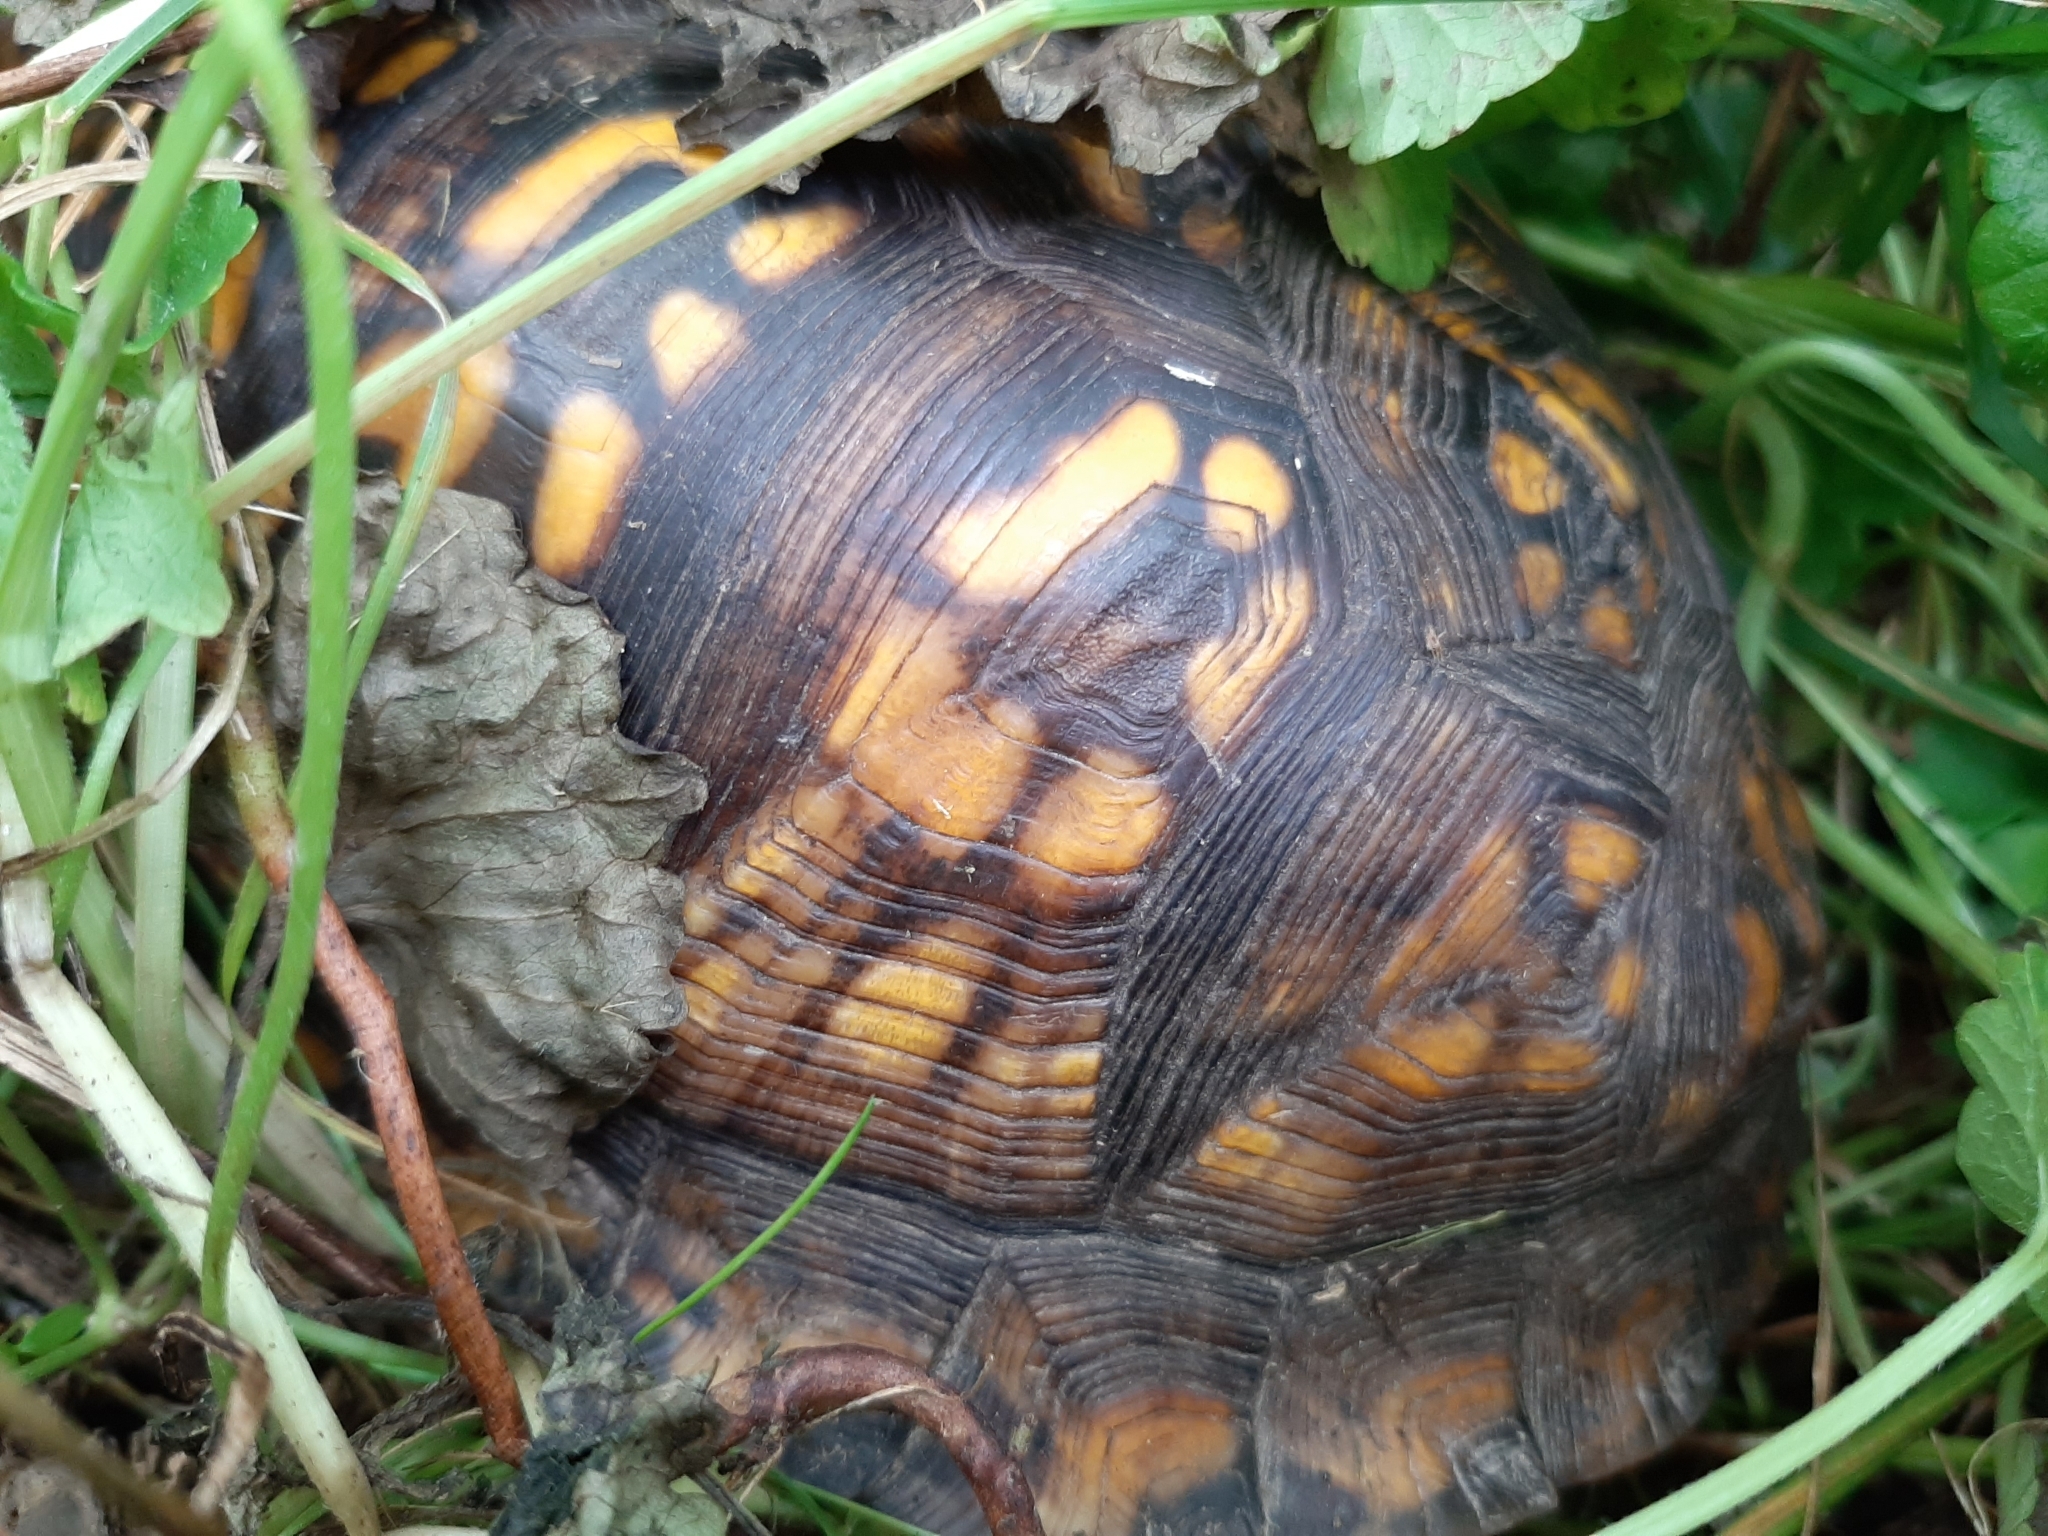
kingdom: Animalia
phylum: Chordata
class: Testudines
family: Emydidae
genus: Terrapene
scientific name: Terrapene carolina
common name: Common box turtle
